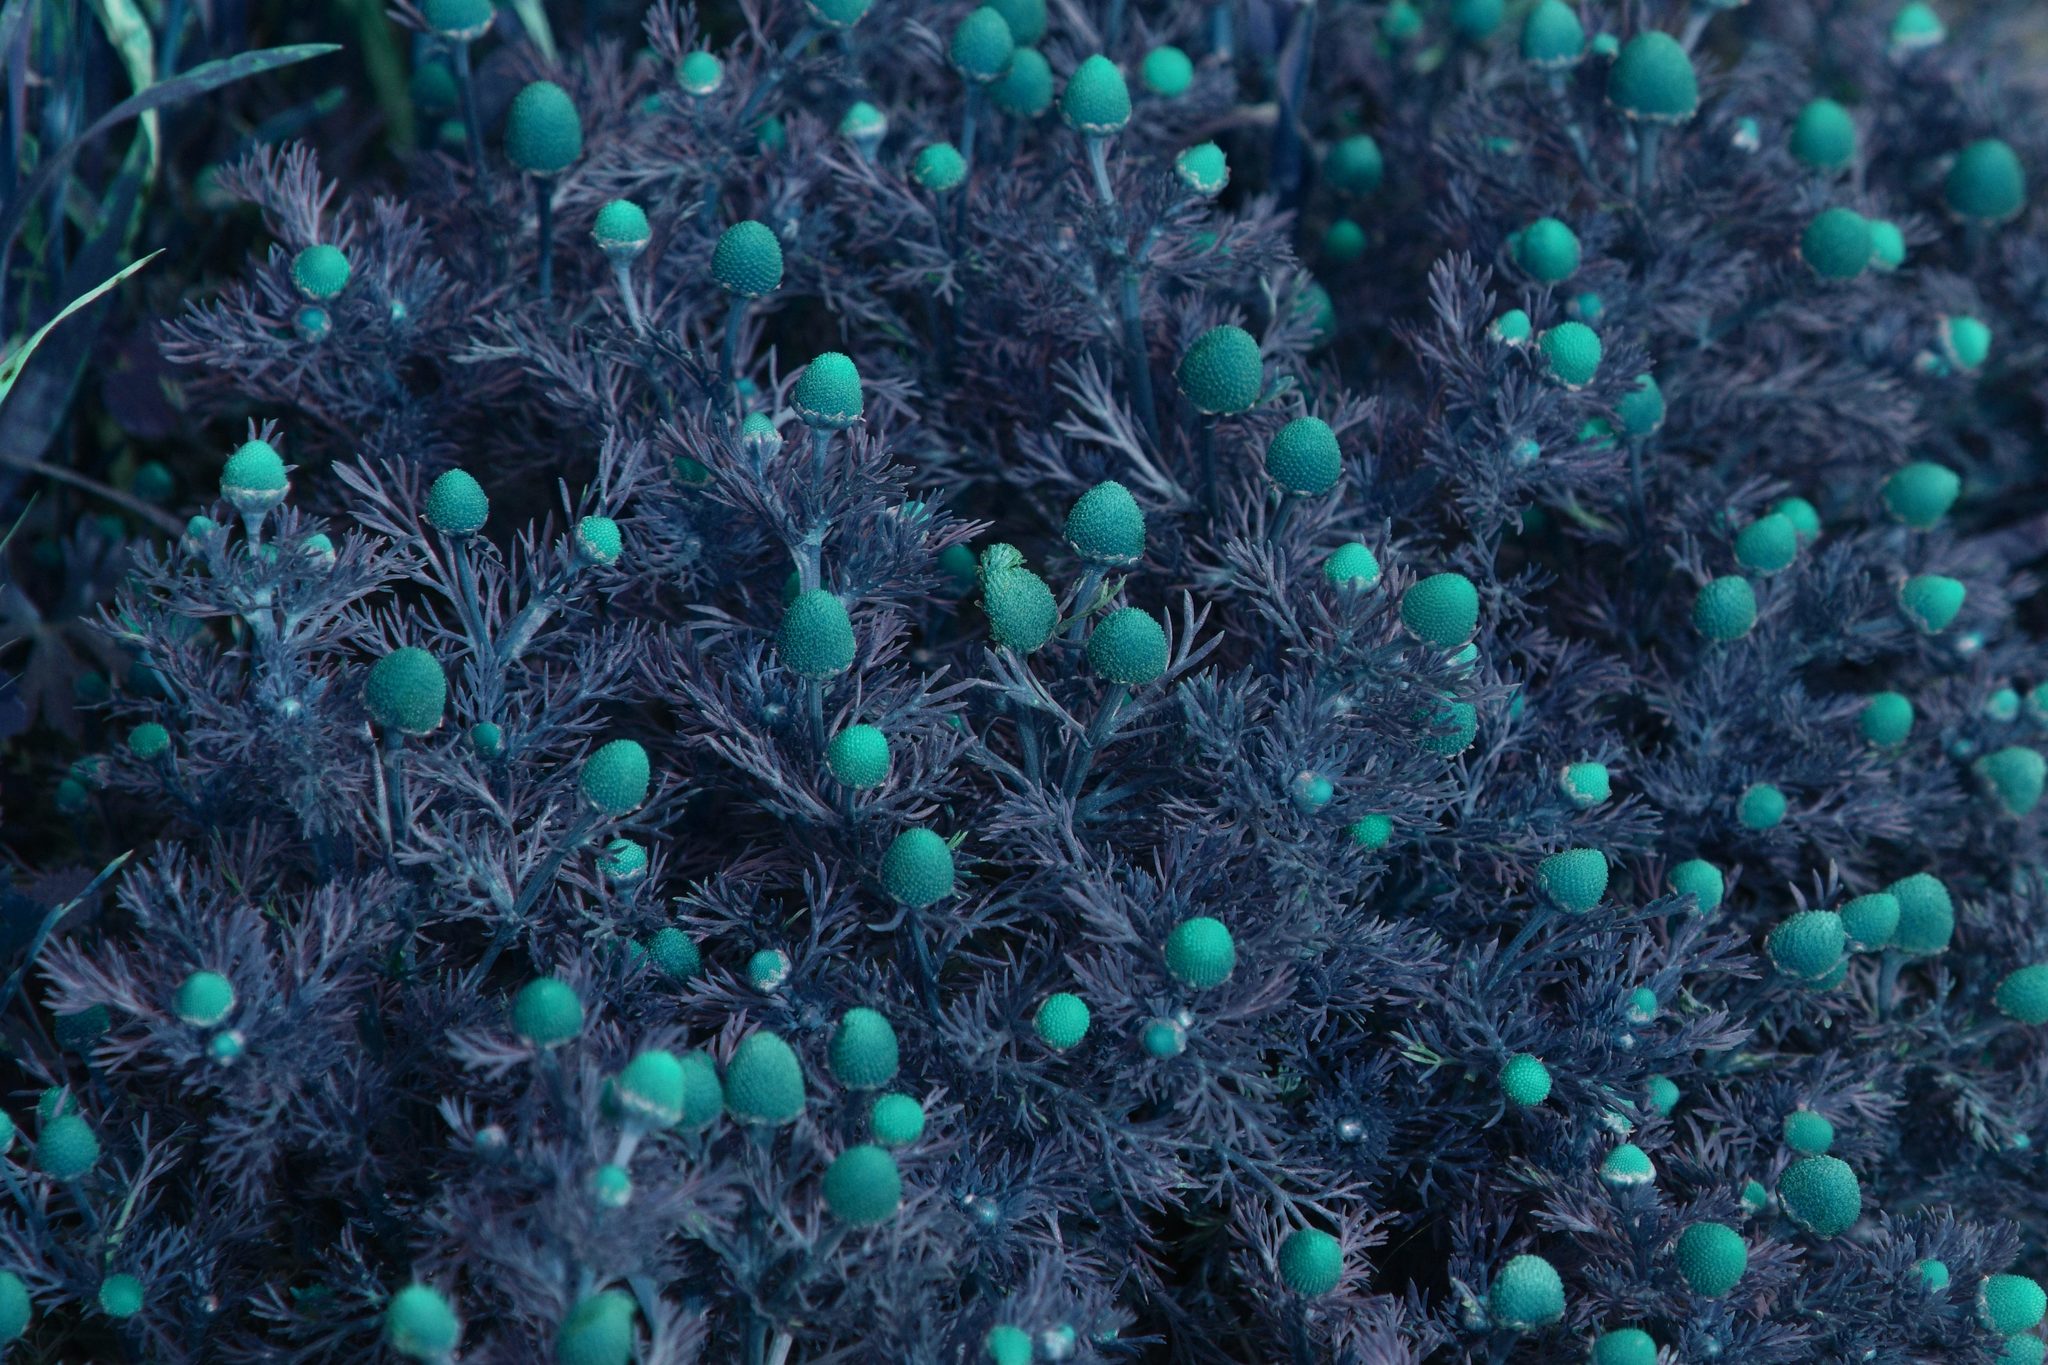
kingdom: Plantae
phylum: Tracheophyta
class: Magnoliopsida
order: Asterales
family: Asteraceae
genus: Matricaria
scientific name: Matricaria discoidea
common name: Disc mayweed
